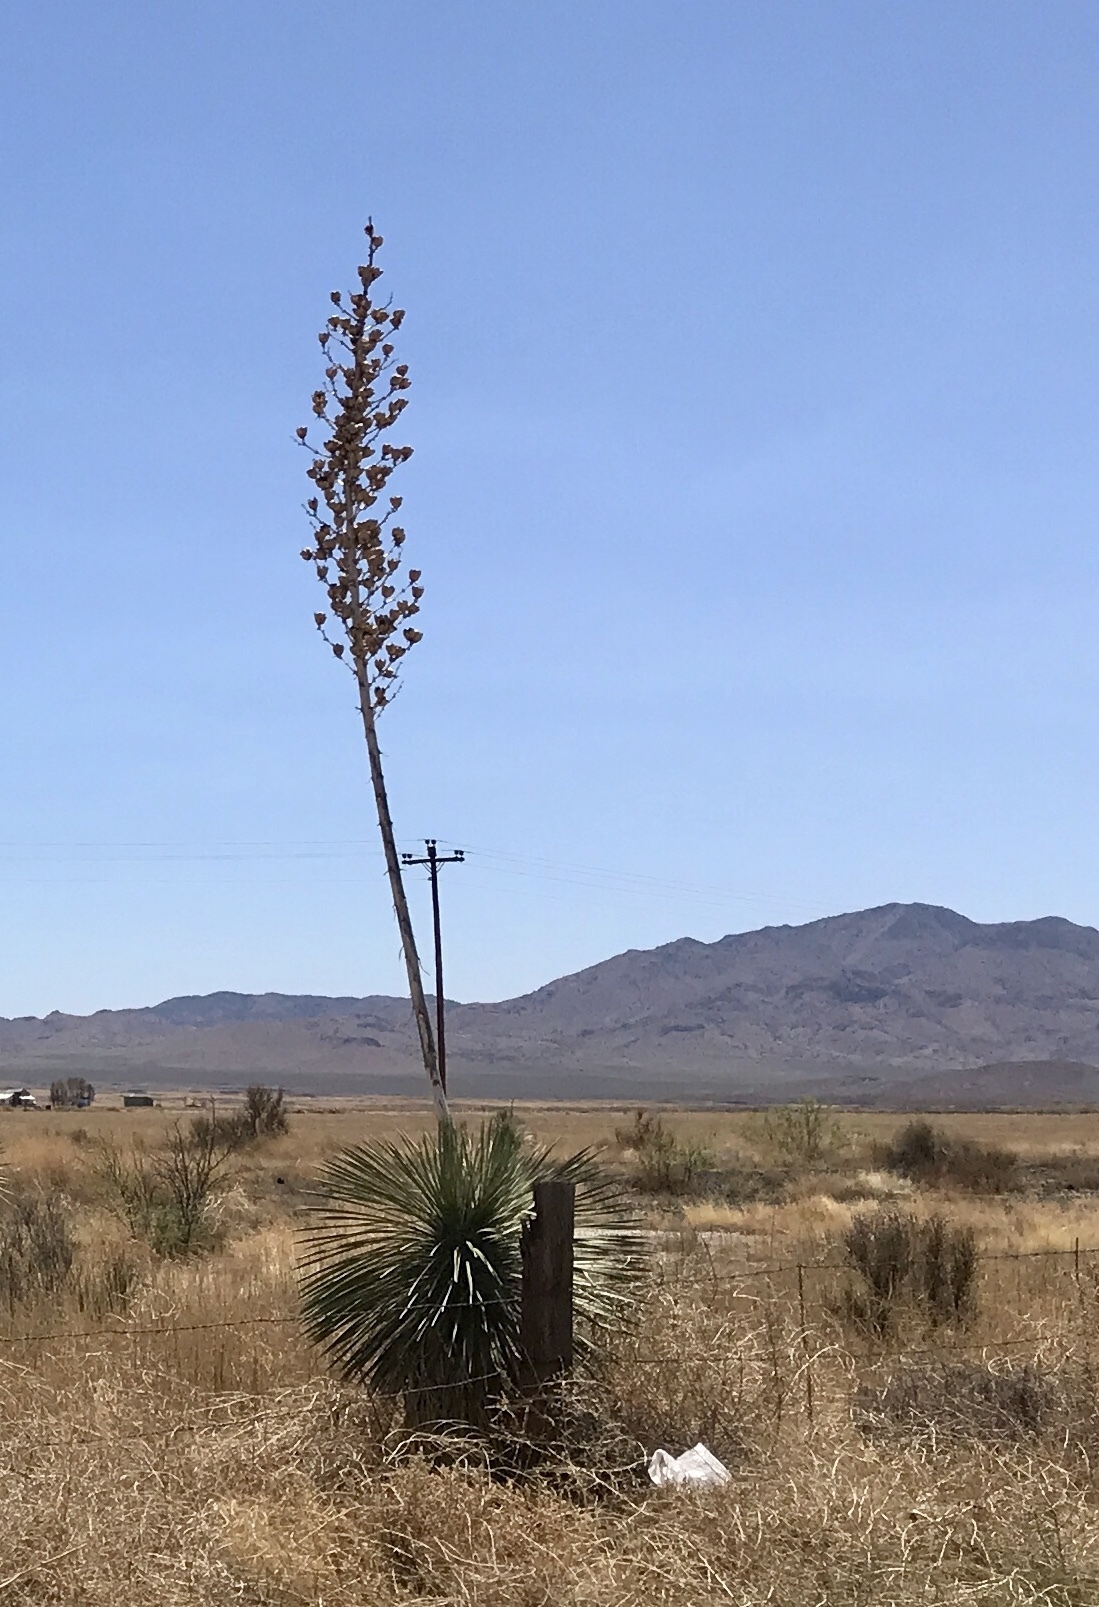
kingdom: Plantae
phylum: Tracheophyta
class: Liliopsida
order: Asparagales
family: Asparagaceae
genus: Yucca
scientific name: Yucca elata
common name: Palmella
